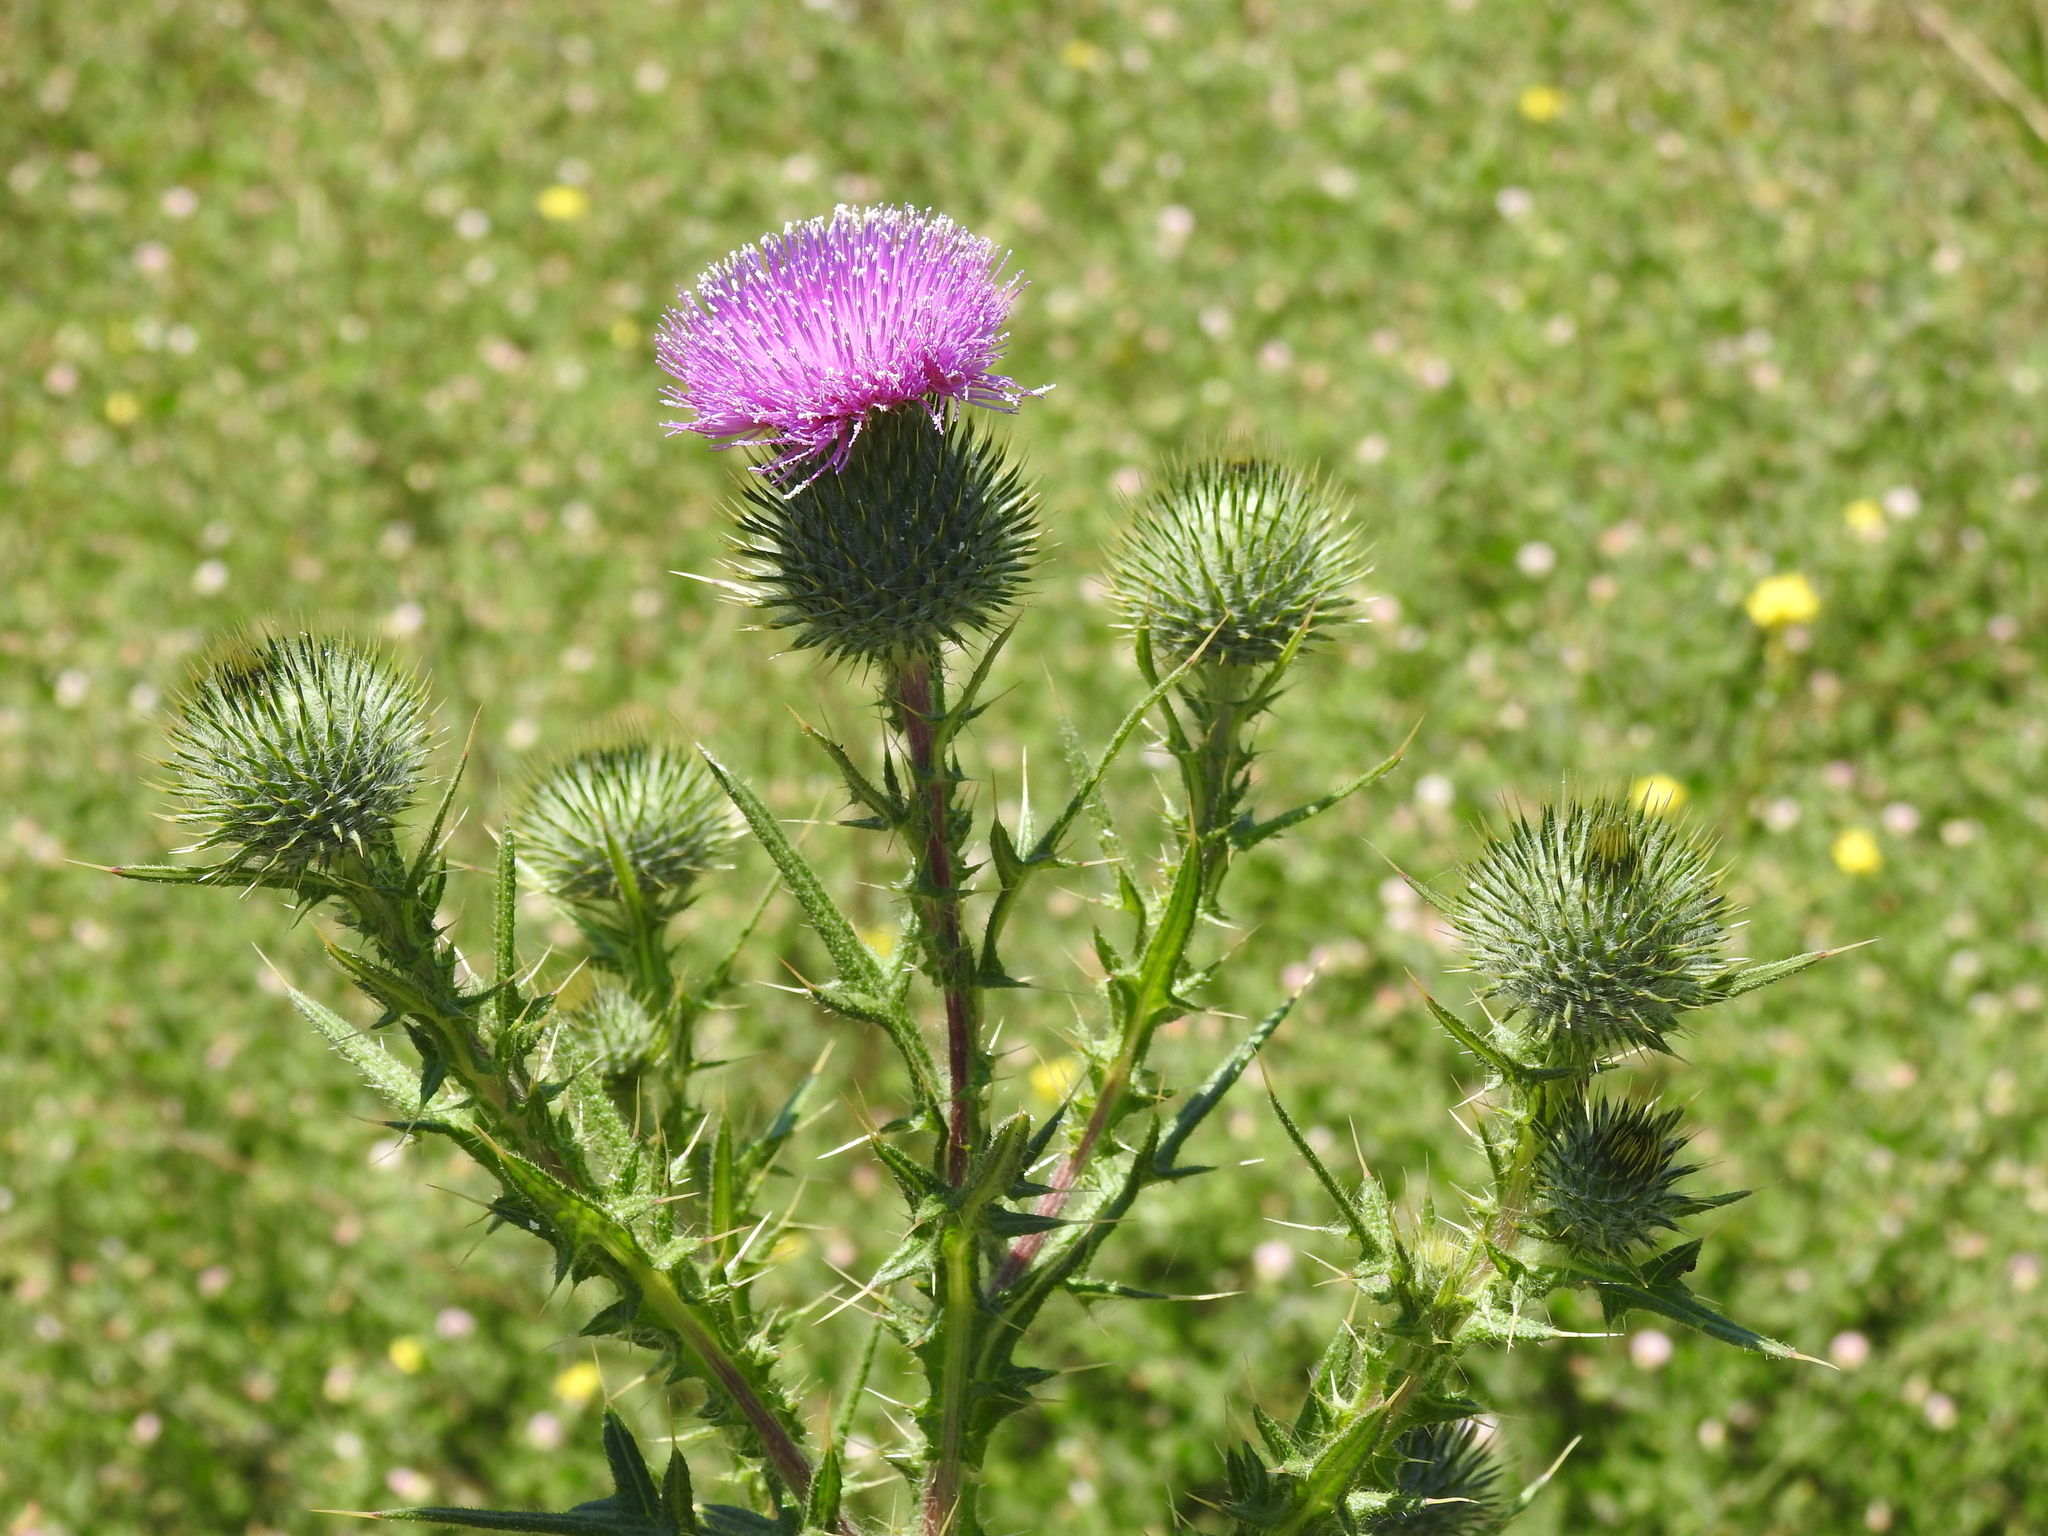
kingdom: Plantae
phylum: Tracheophyta
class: Magnoliopsida
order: Asterales
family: Asteraceae
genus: Cirsium
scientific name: Cirsium vulgare
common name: Bull thistle
